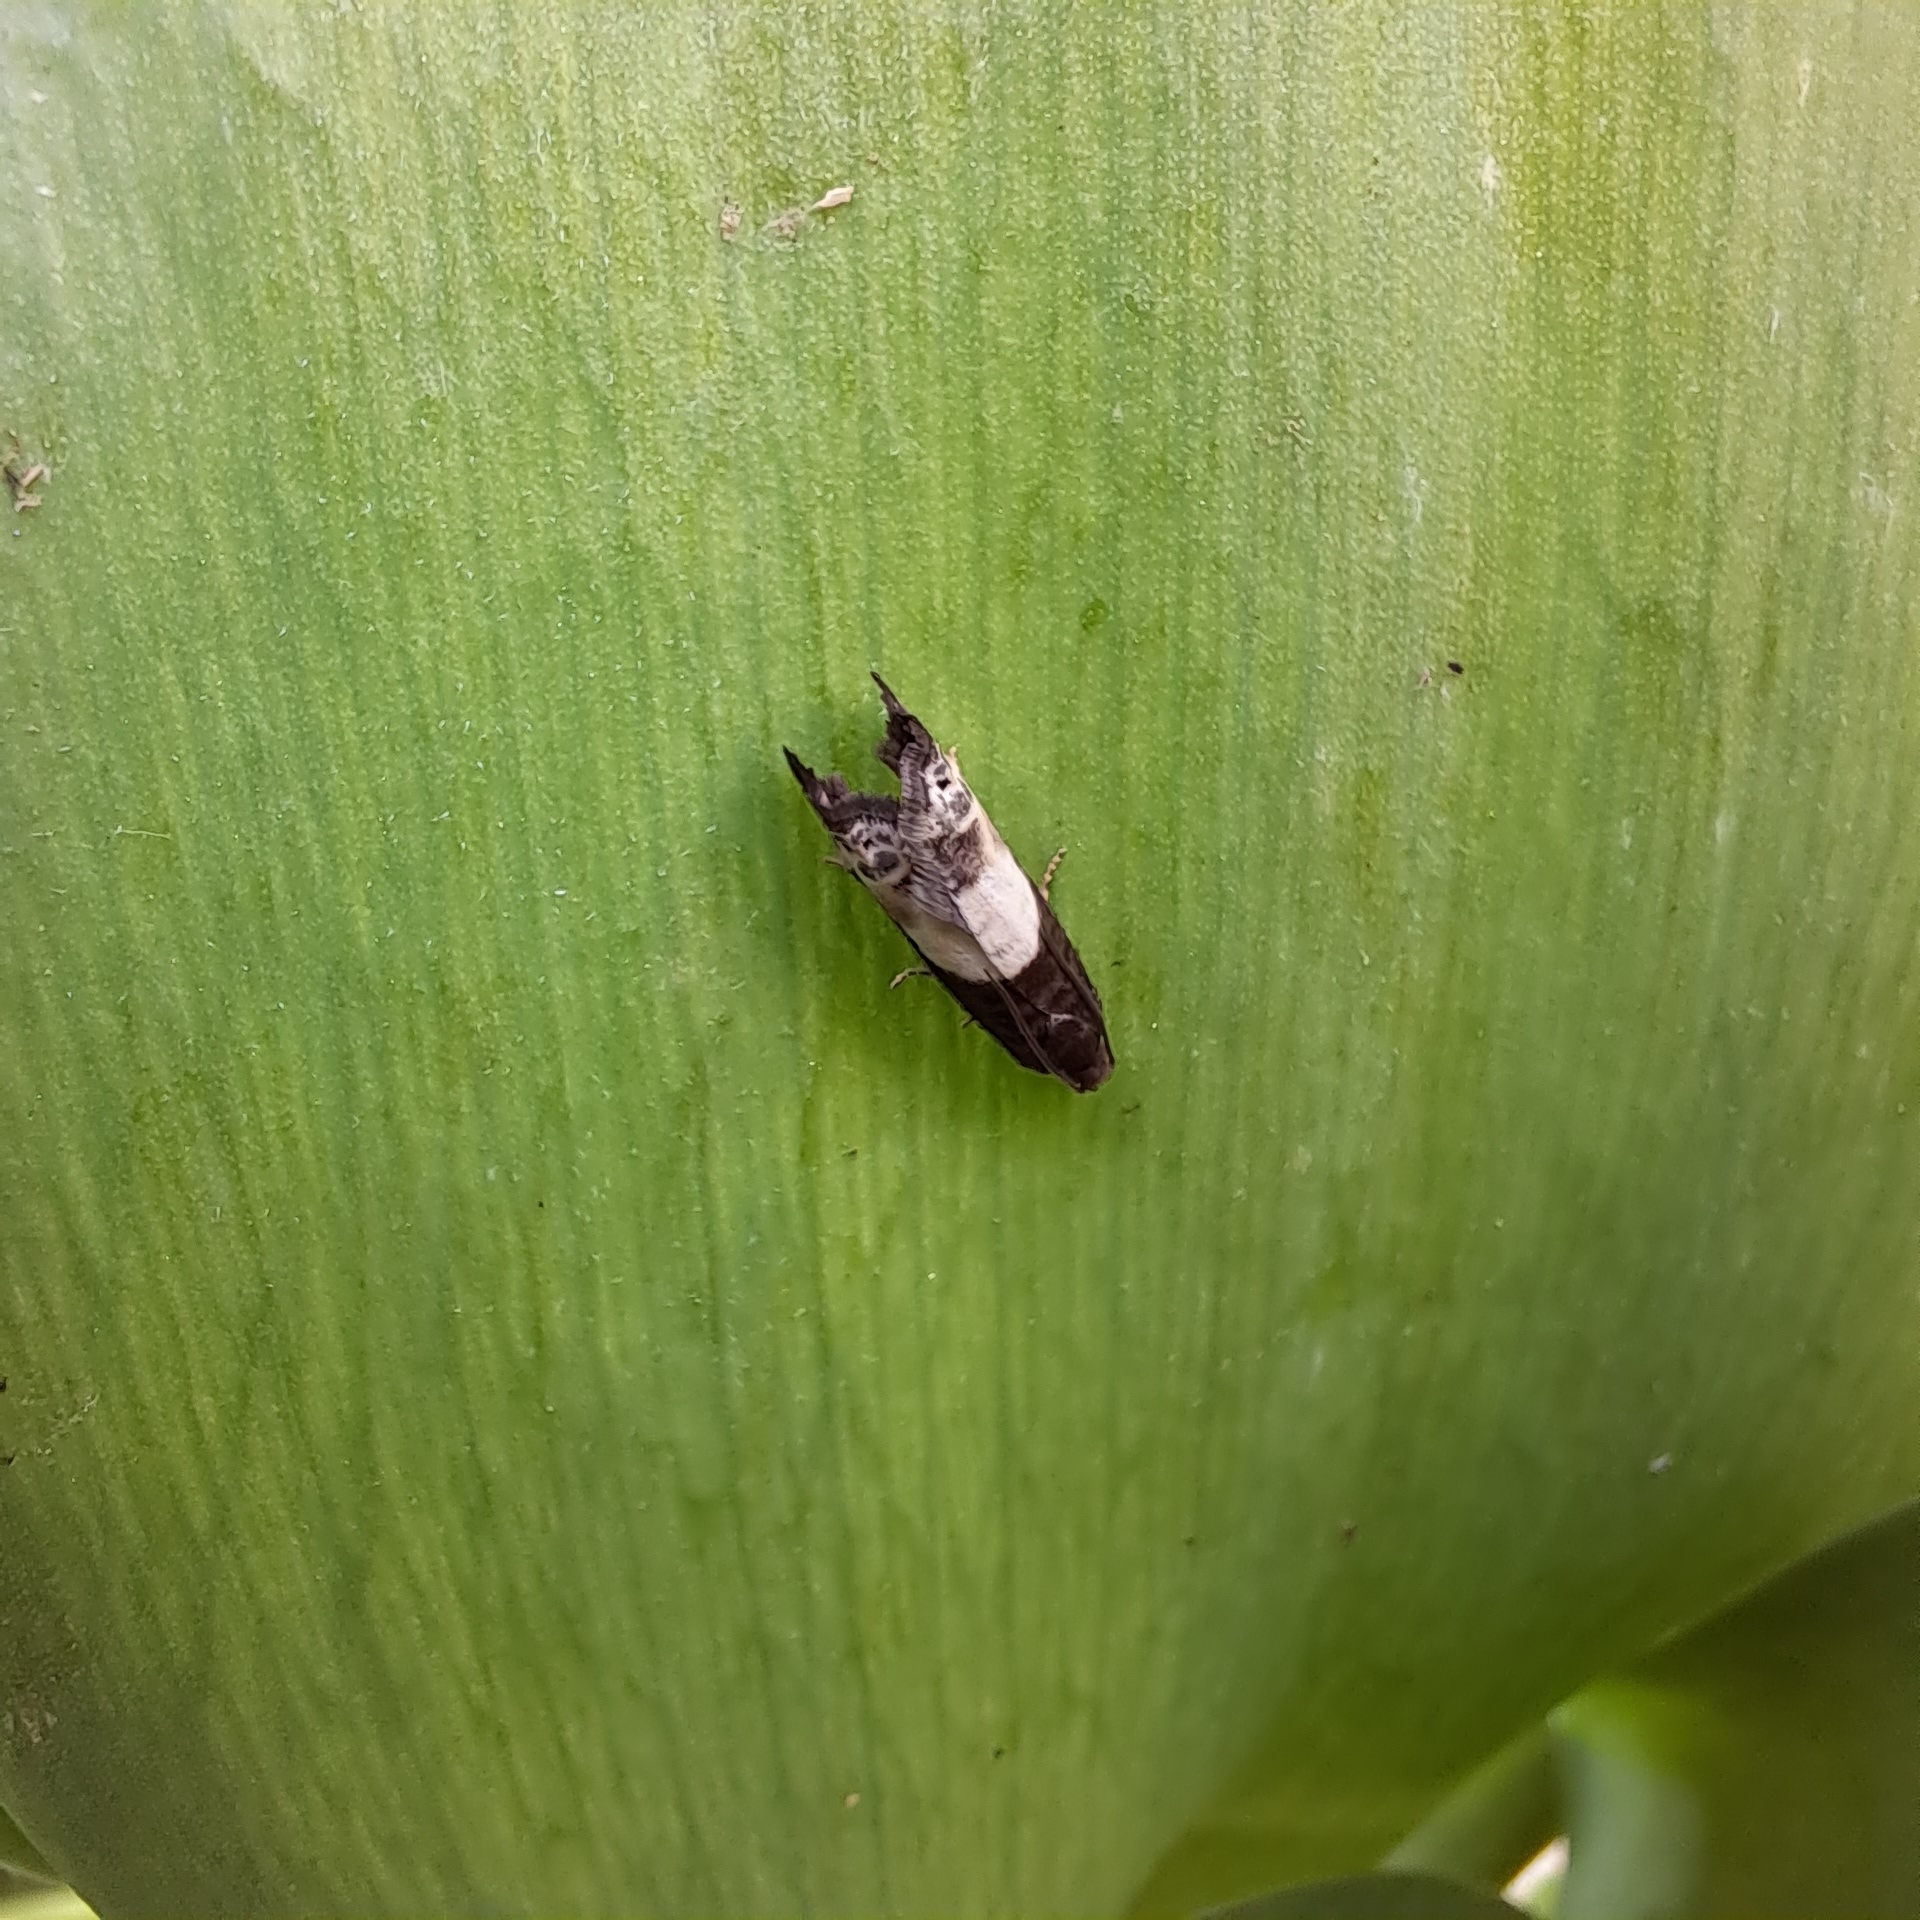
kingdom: Animalia
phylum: Arthropoda
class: Insecta
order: Lepidoptera
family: Tortricidae
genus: Notocelia
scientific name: Notocelia cynosbatella
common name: Yellow-faced bell moth
